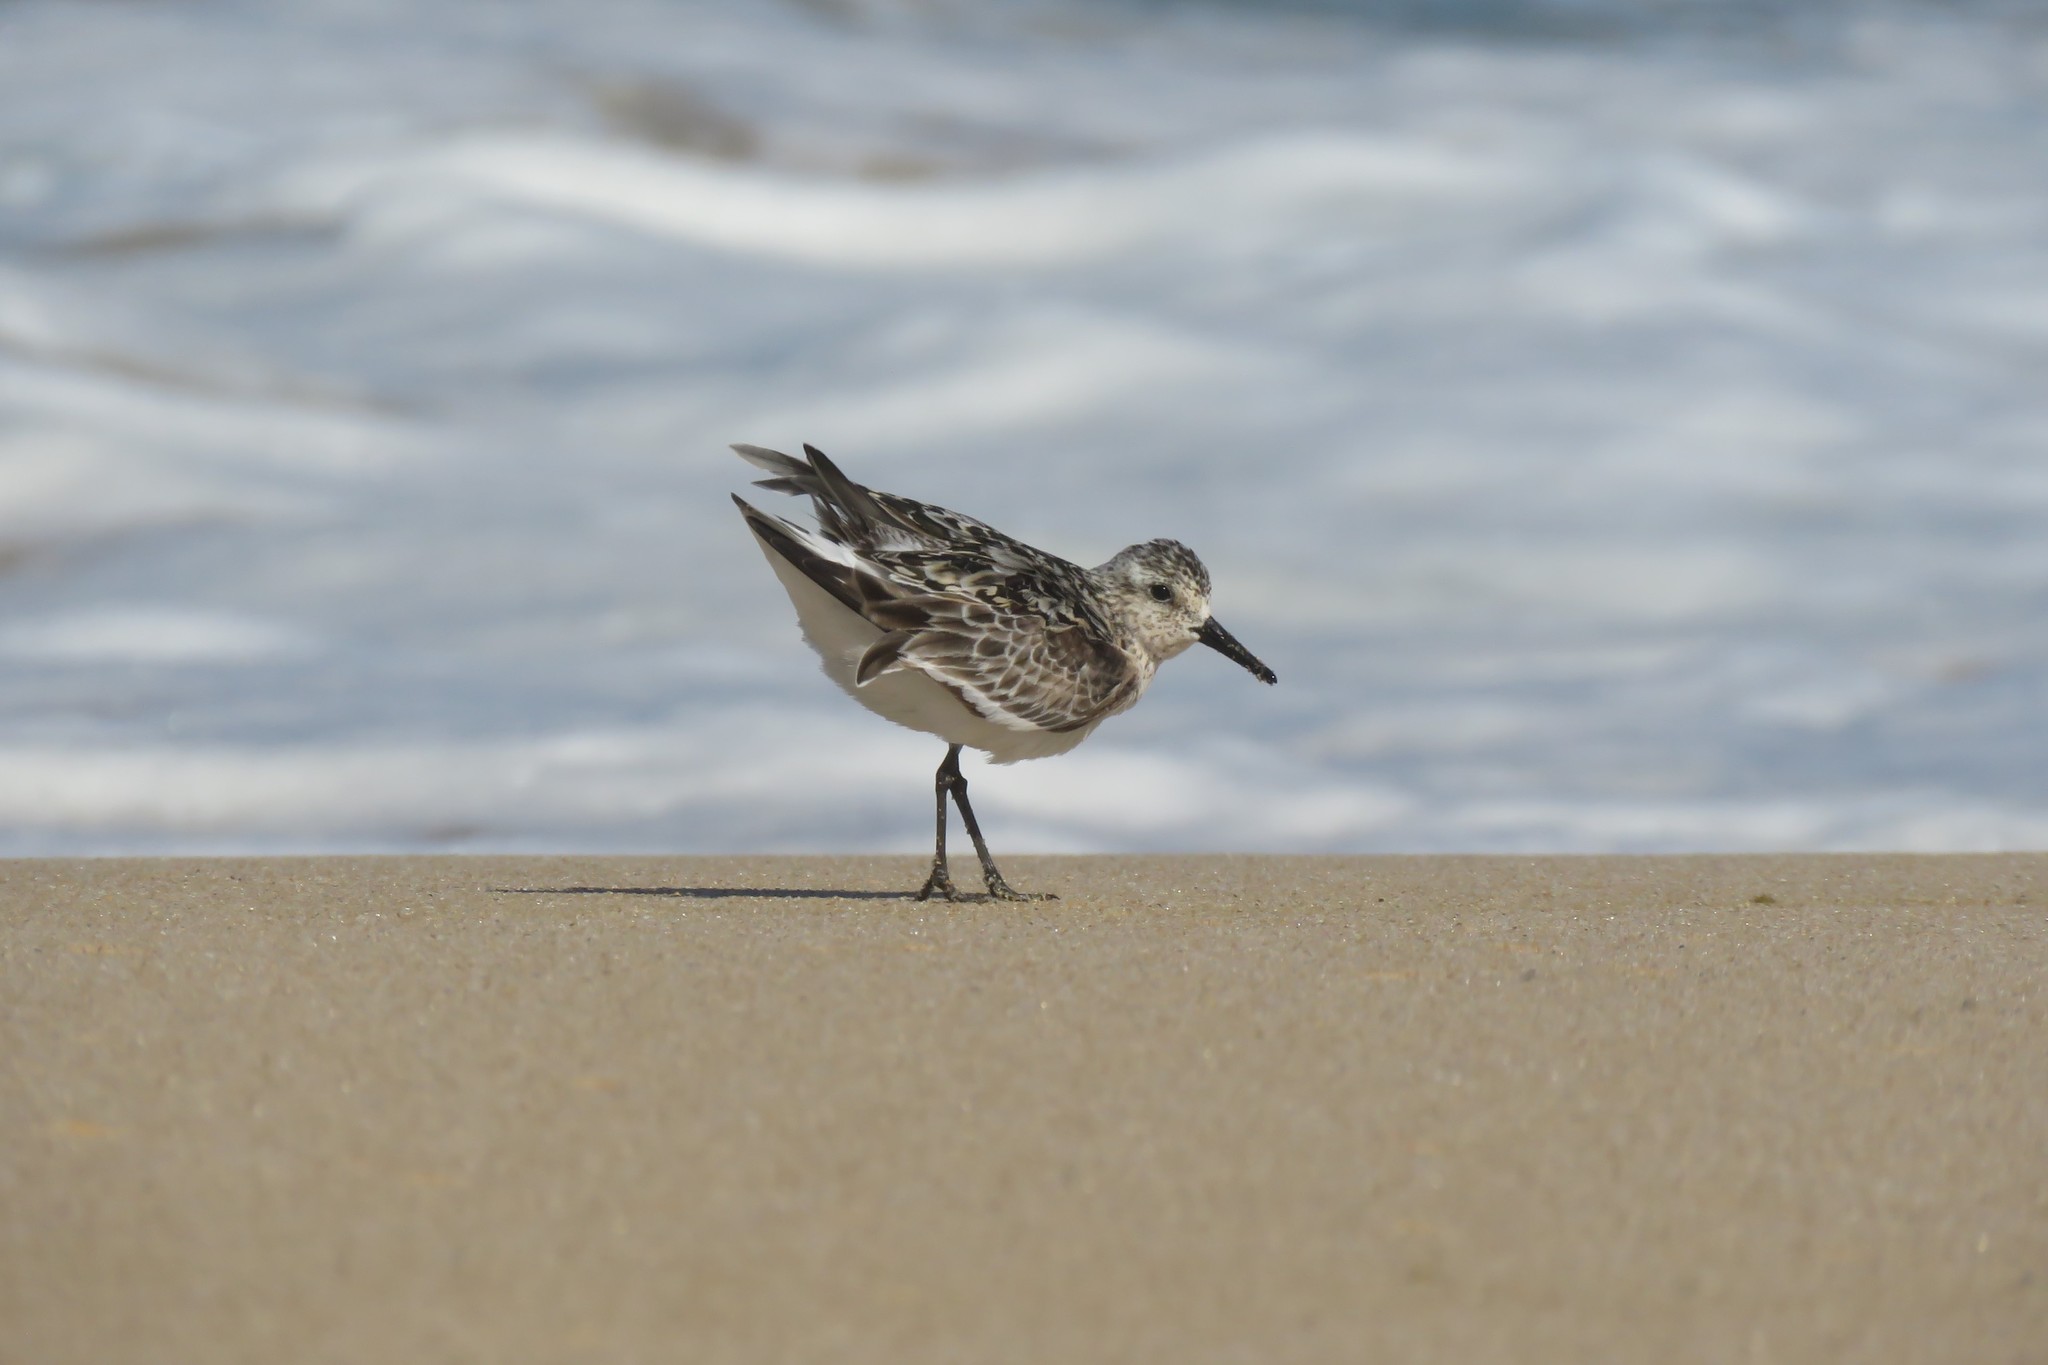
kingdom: Animalia
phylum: Chordata
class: Aves
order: Charadriiformes
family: Scolopacidae
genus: Calidris
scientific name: Calidris alba
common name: Sanderling
